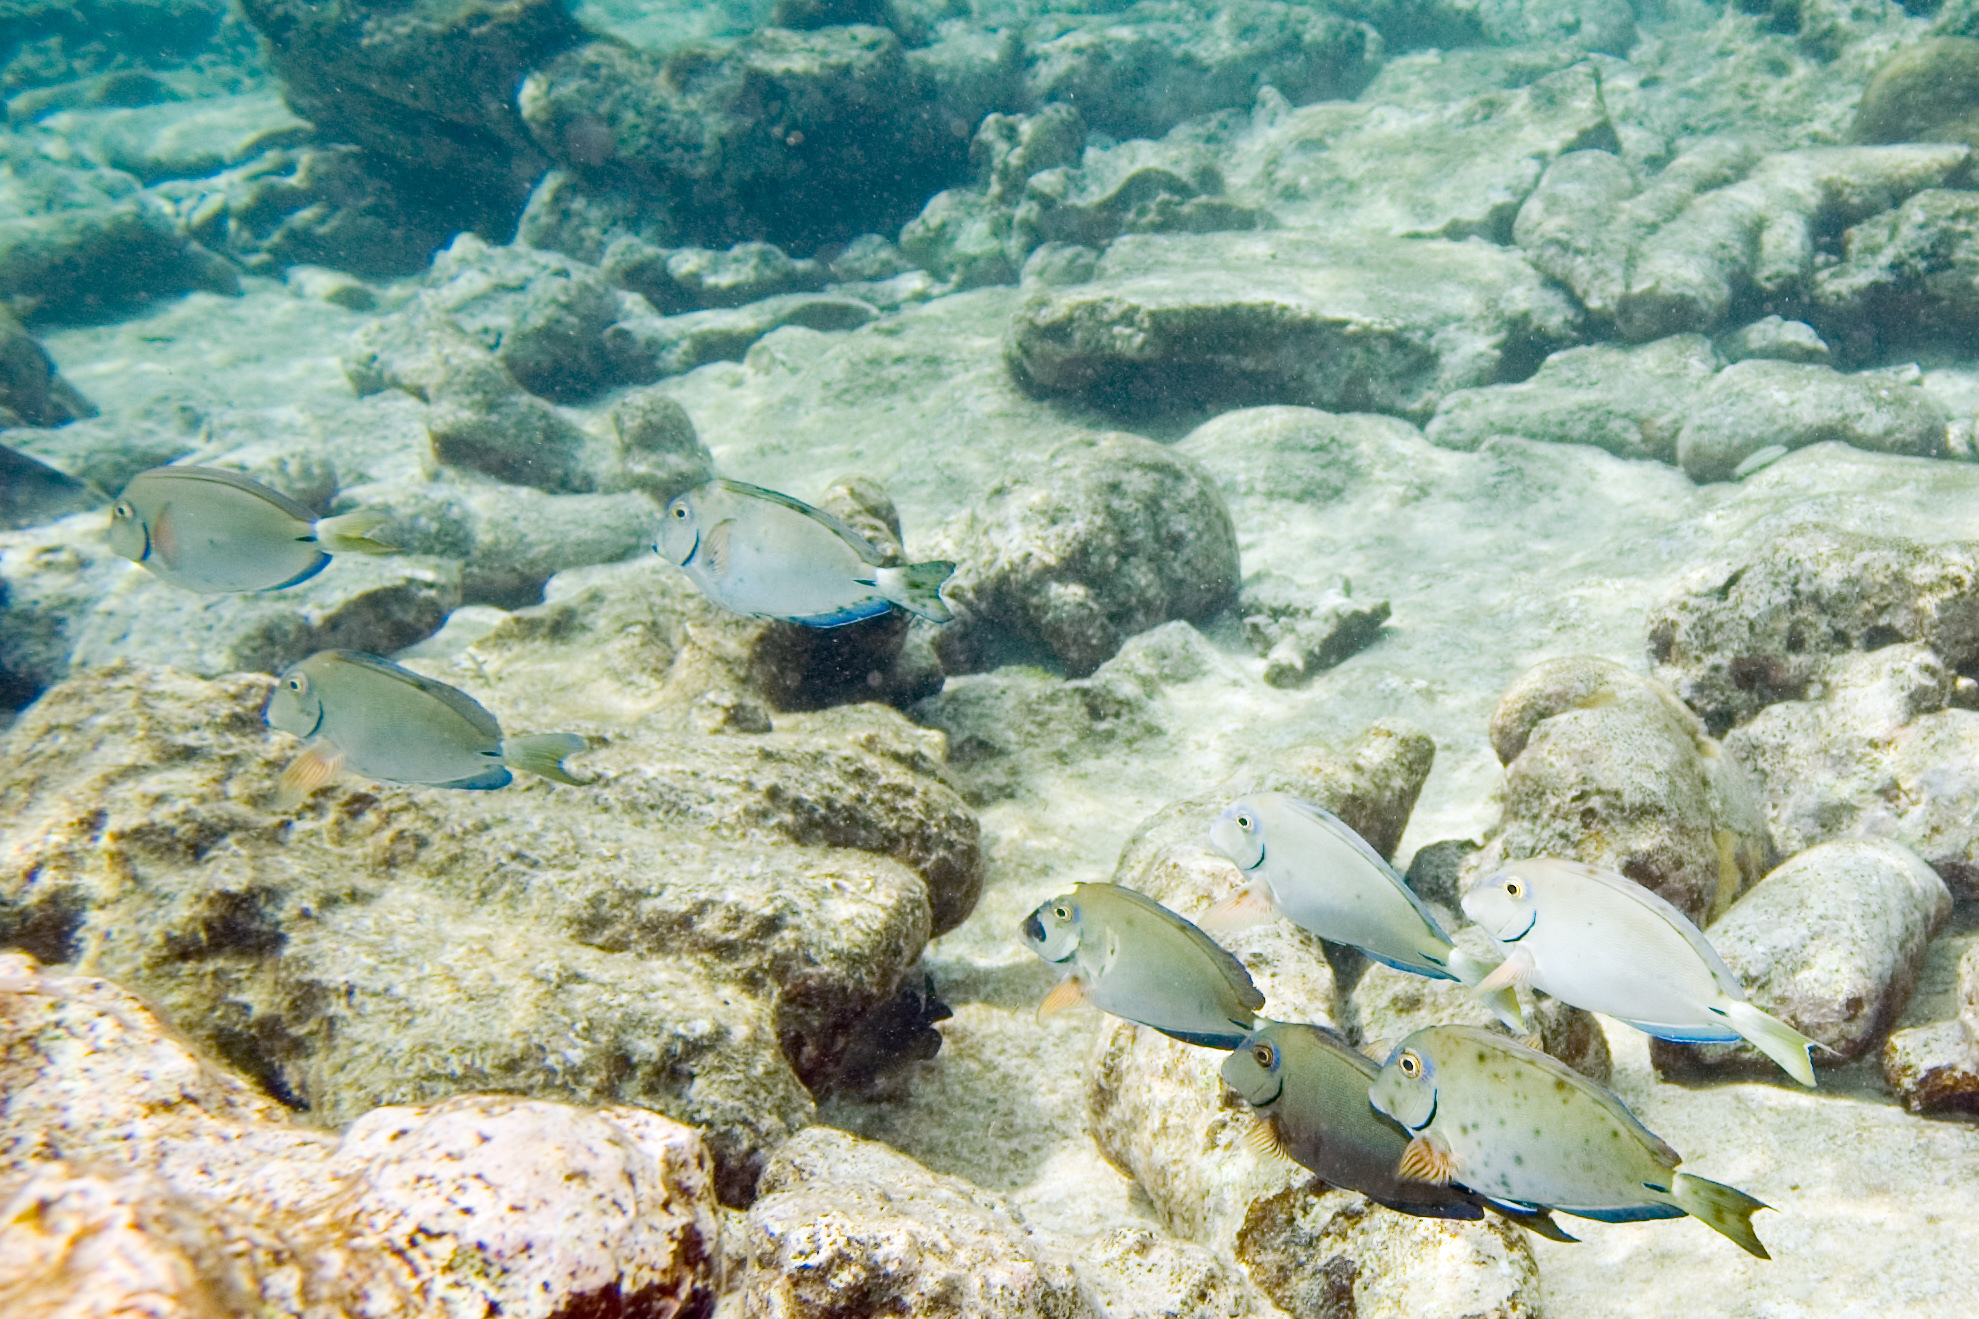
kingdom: Animalia
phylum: Chordata
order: Perciformes
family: Acanthuridae
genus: Acanthurus
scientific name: Acanthurus bahianus
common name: Ocean surgeon
